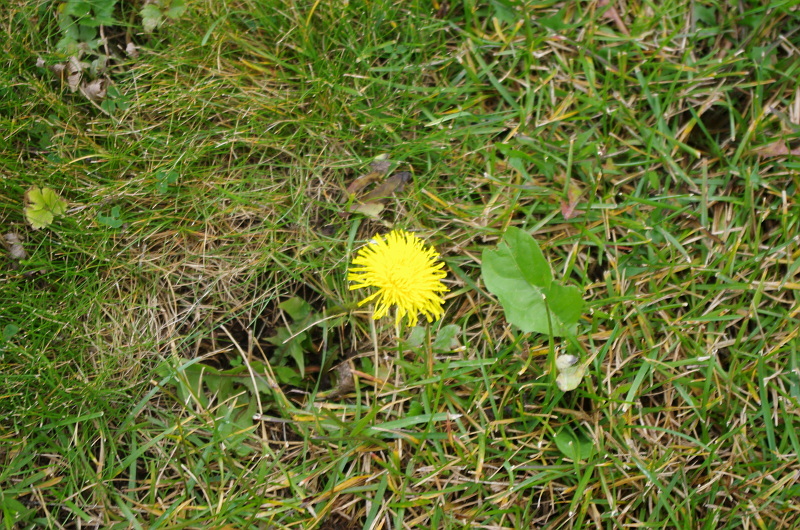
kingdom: Plantae
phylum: Tracheophyta
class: Magnoliopsida
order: Asterales
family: Asteraceae
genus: Taraxacum
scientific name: Taraxacum officinale
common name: Common dandelion
